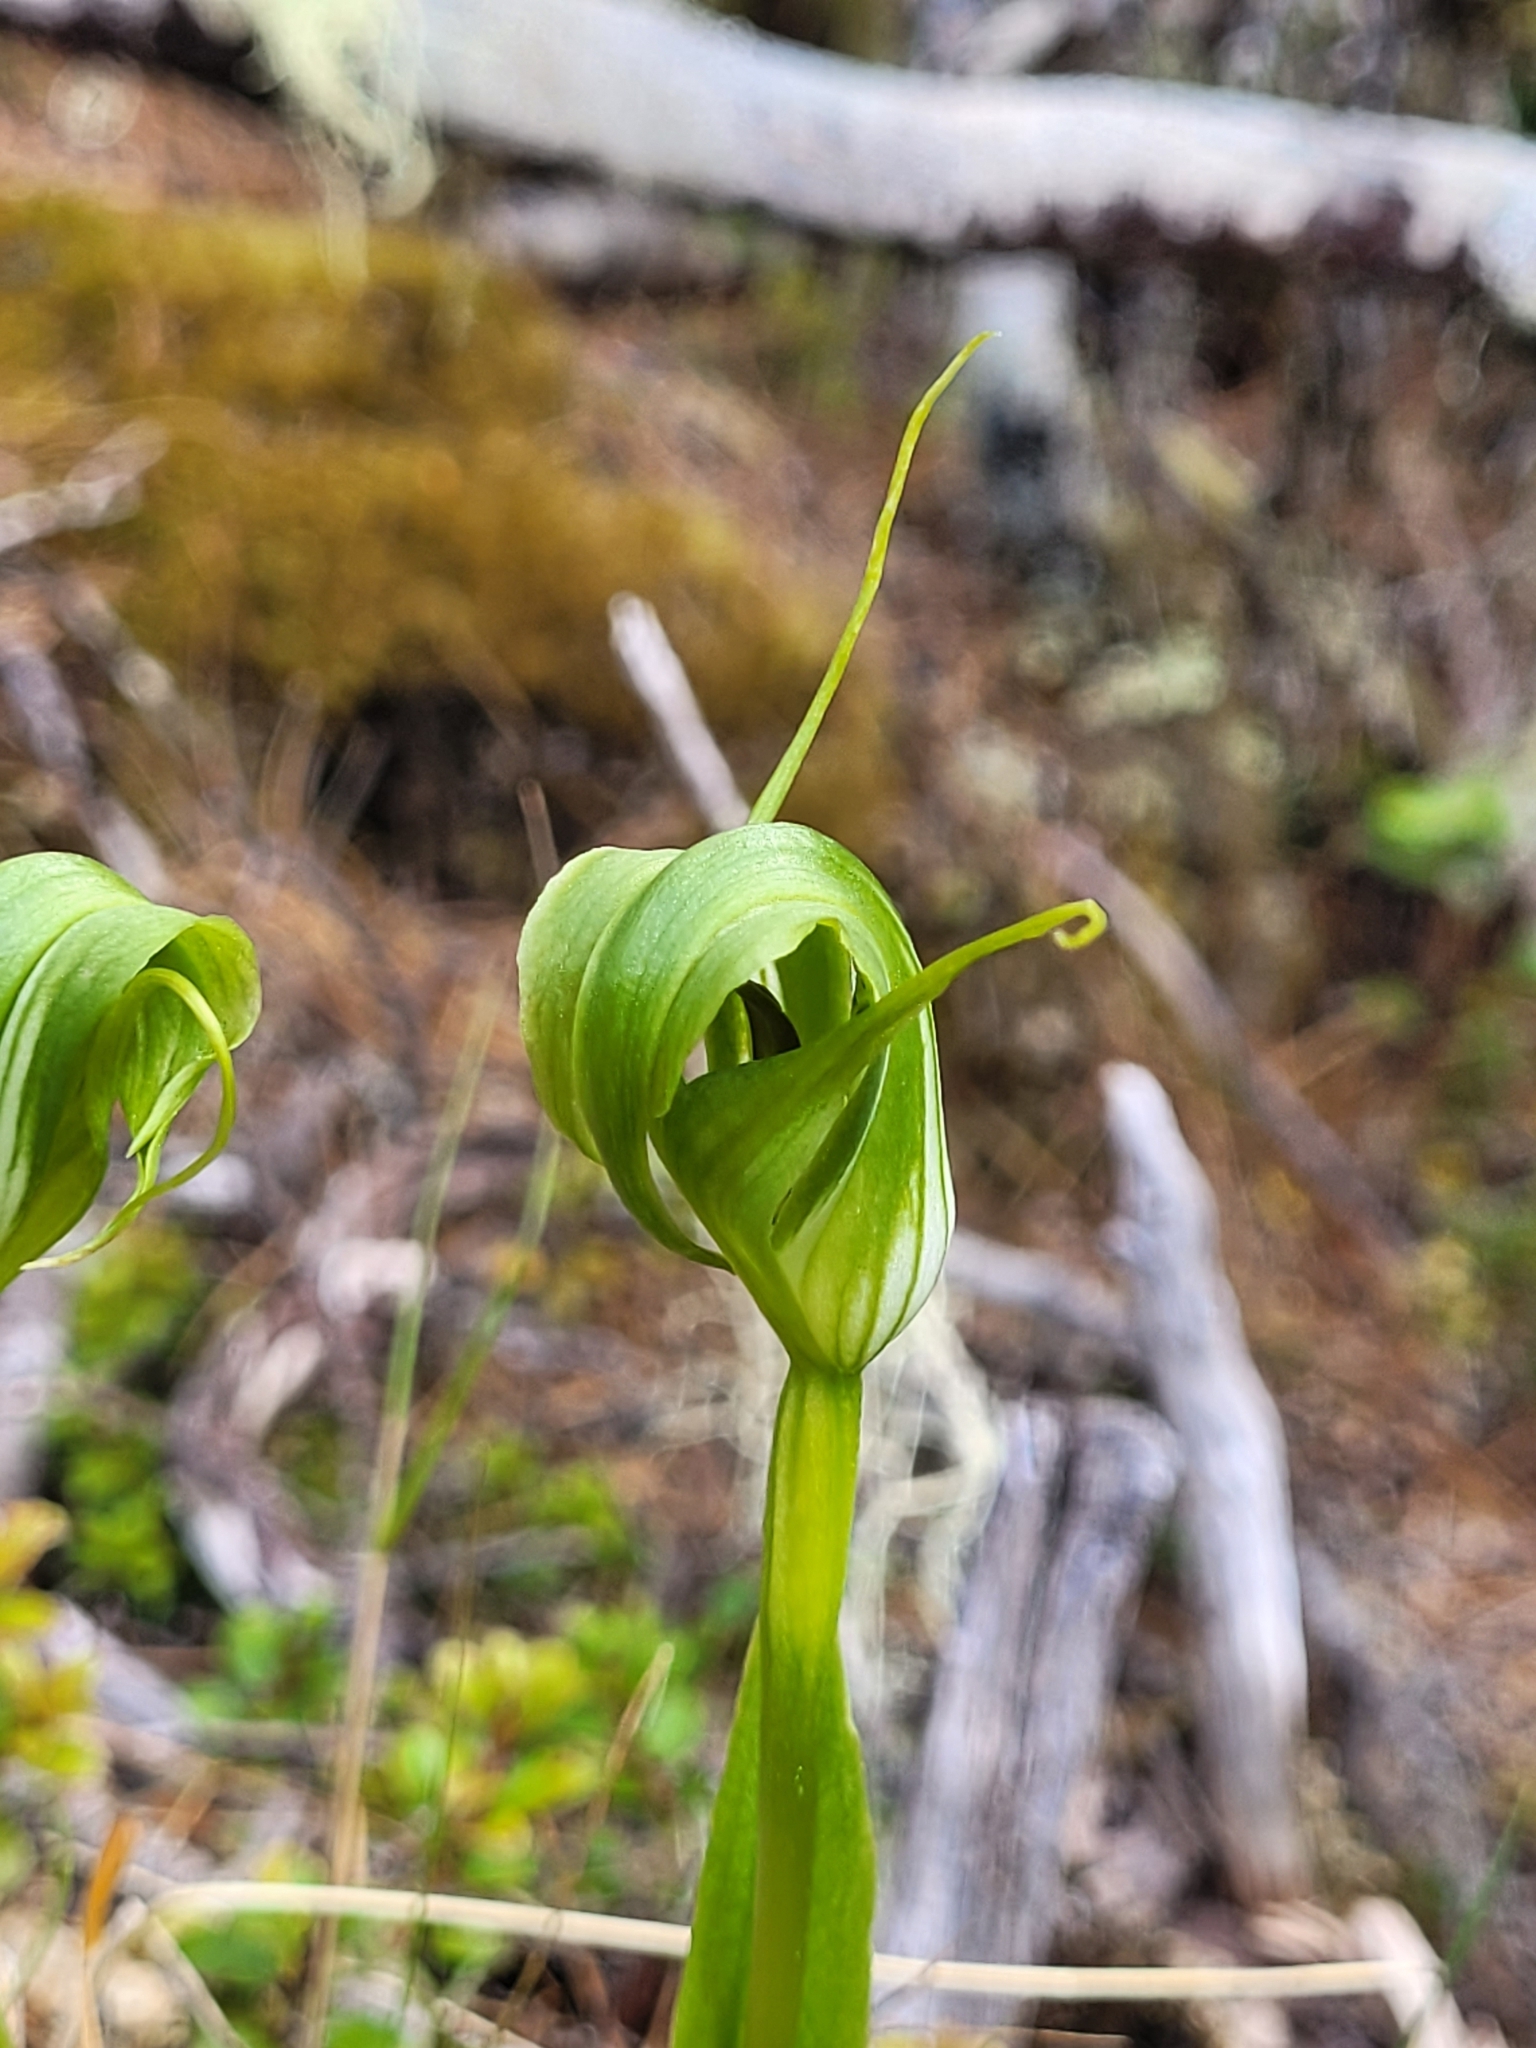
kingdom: Plantae
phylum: Tracheophyta
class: Liliopsida
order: Asparagales
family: Orchidaceae
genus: Pterostylis
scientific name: Pterostylis oliveri
